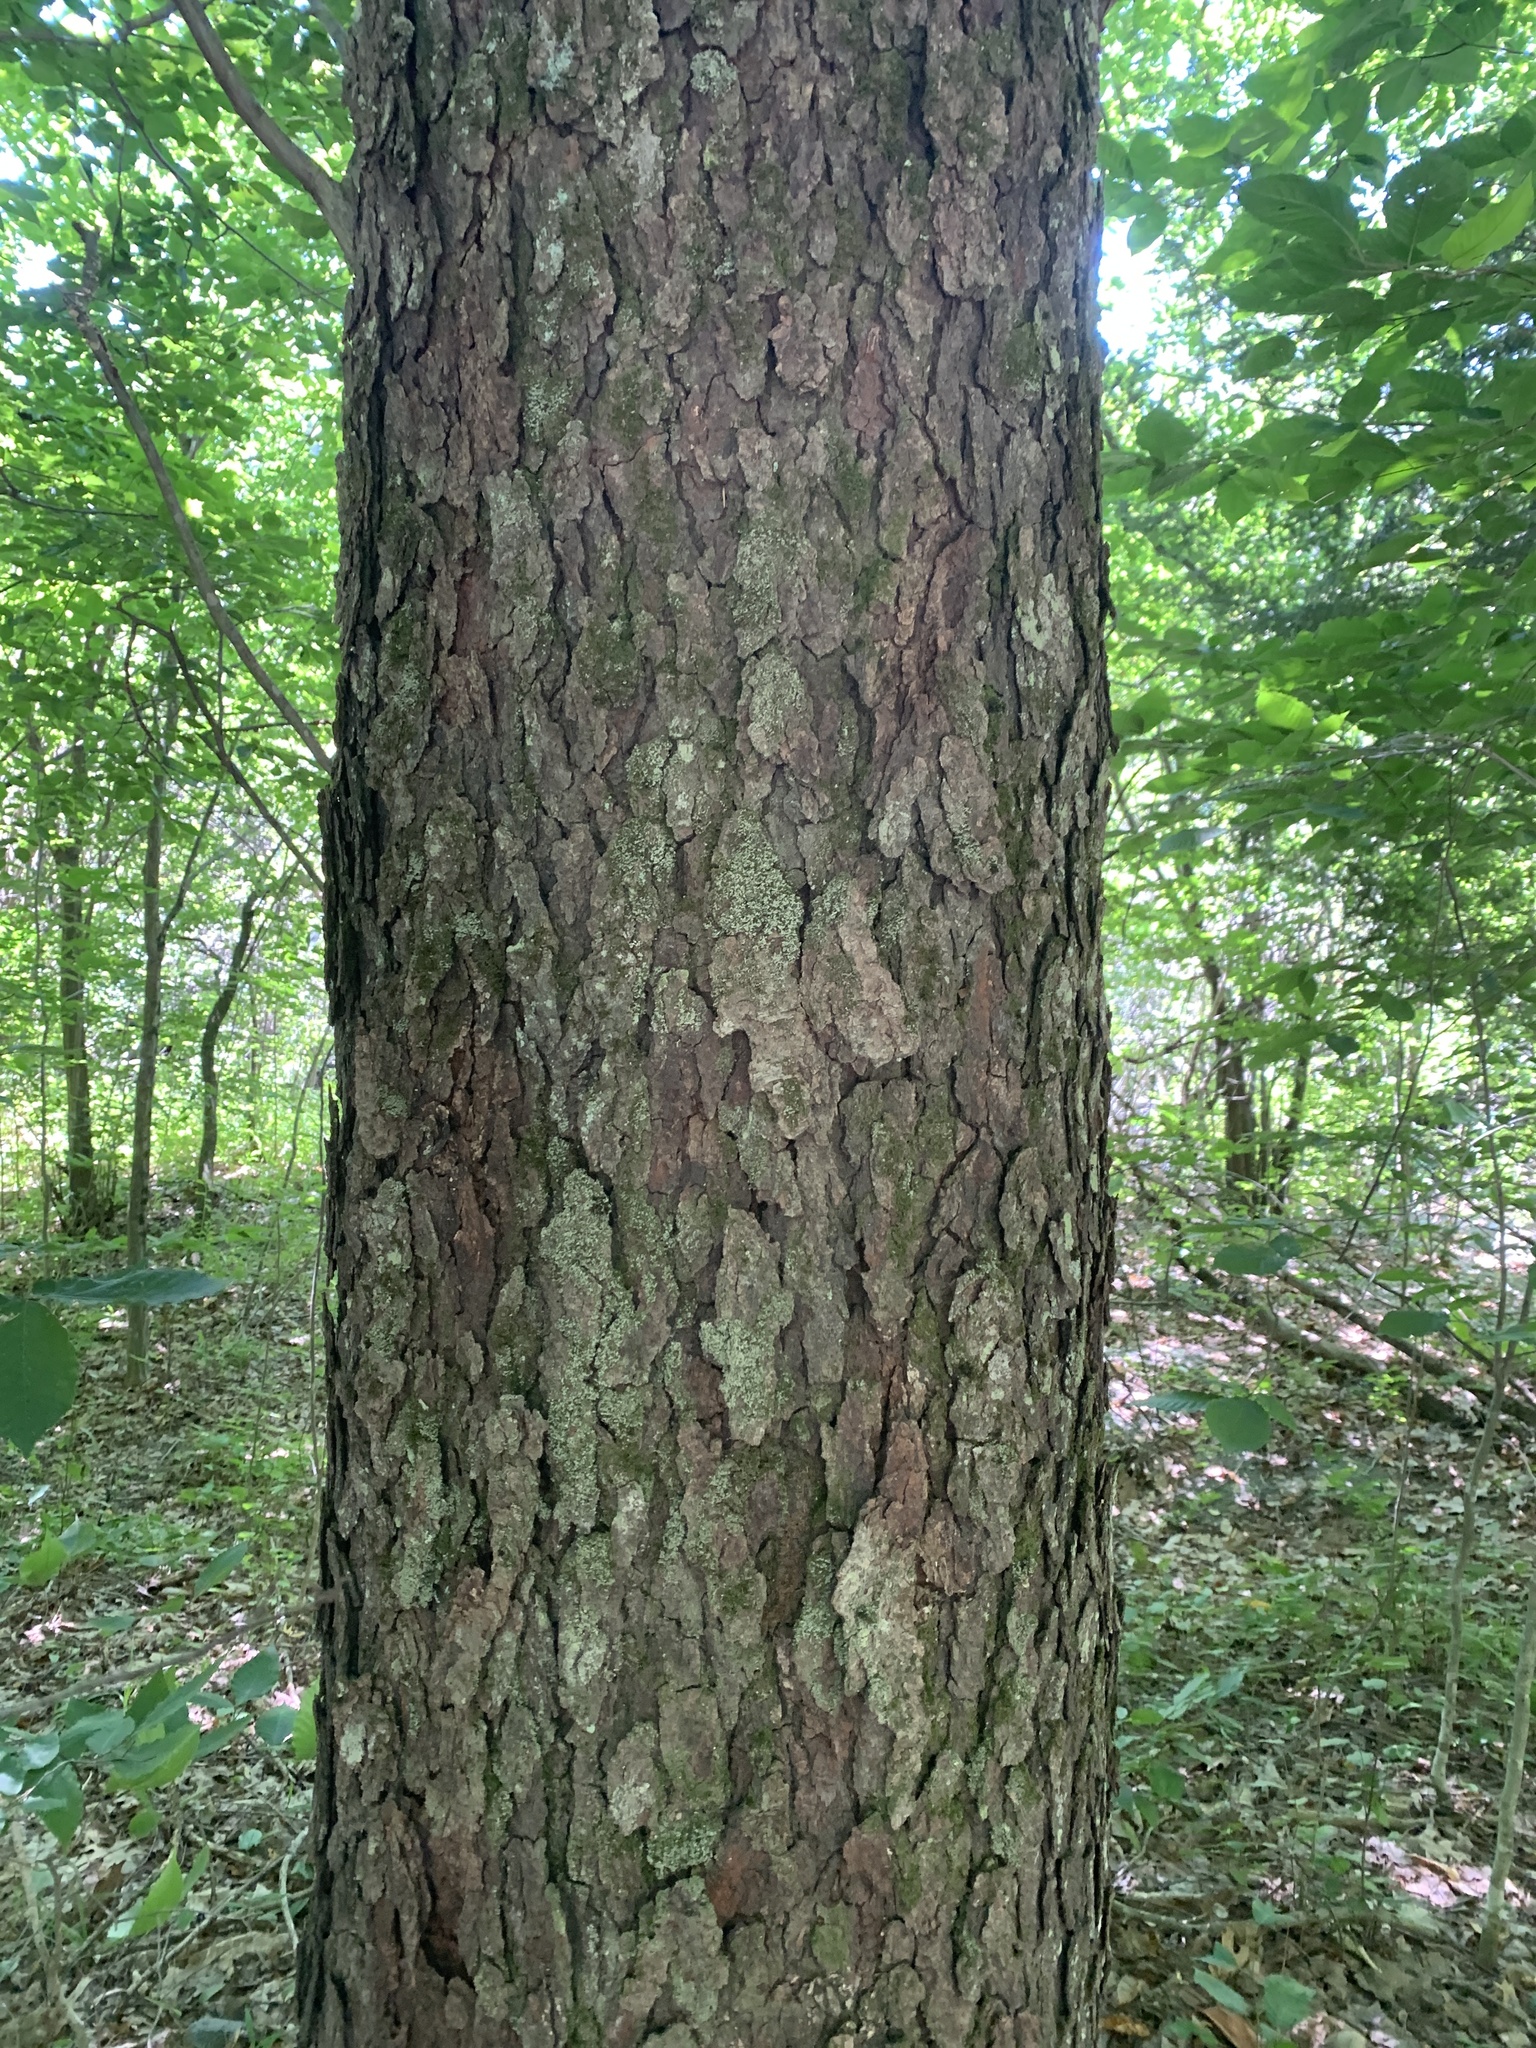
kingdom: Plantae
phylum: Tracheophyta
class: Magnoliopsida
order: Rosales
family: Rosaceae
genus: Prunus
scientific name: Prunus serotina
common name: Black cherry
